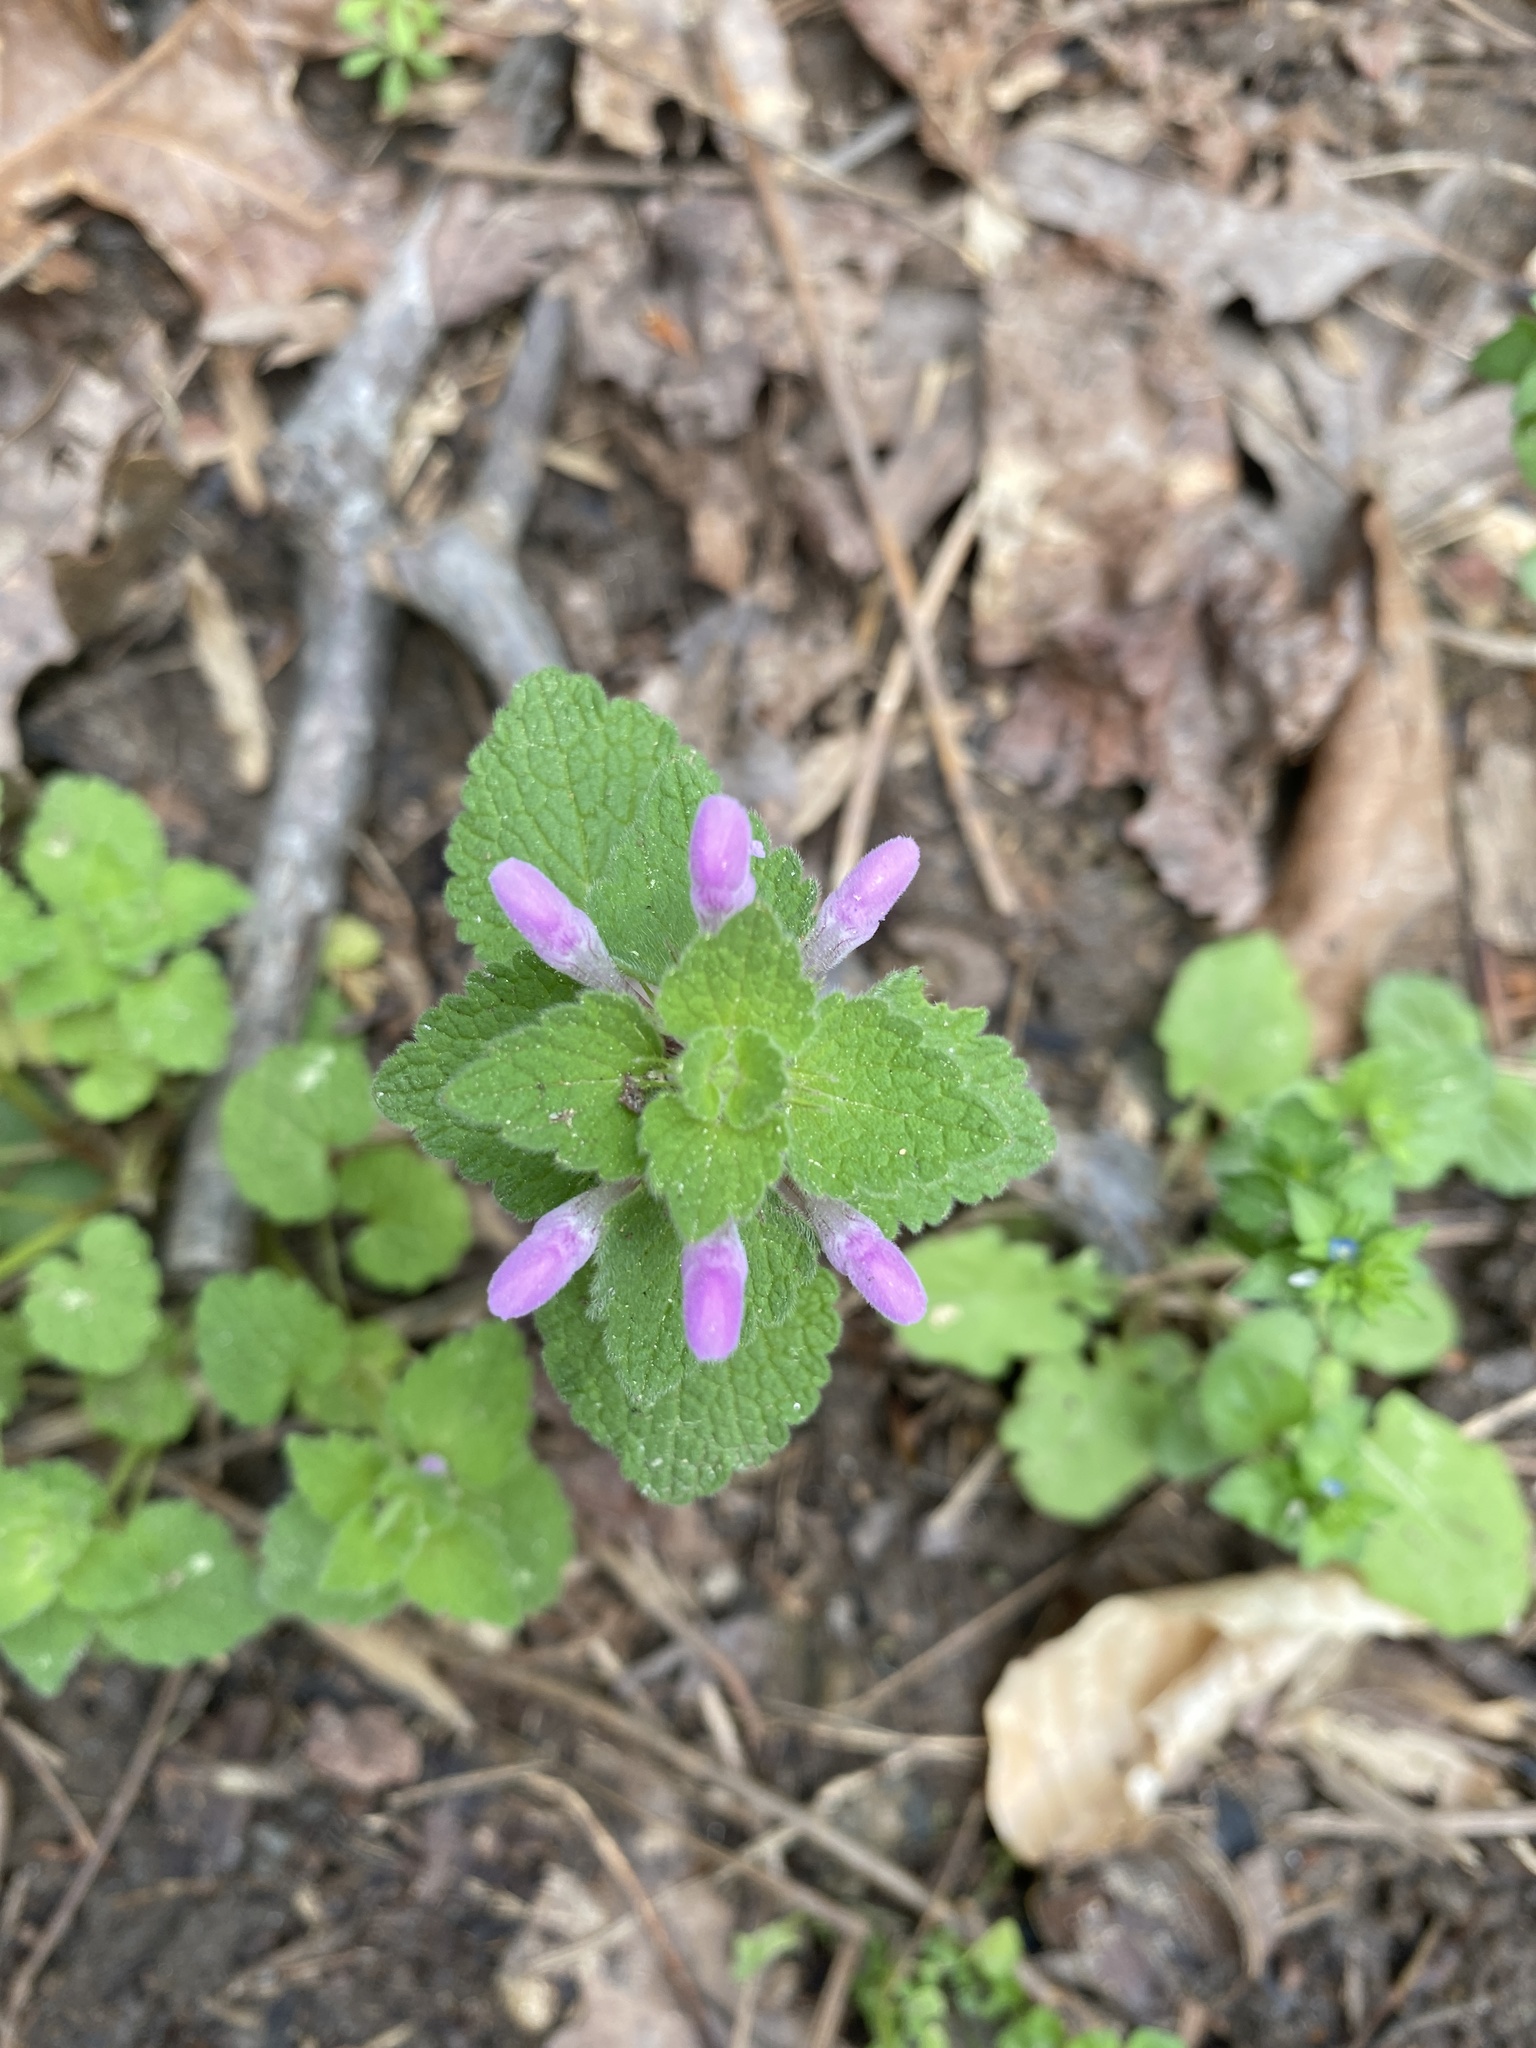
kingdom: Plantae
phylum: Tracheophyta
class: Magnoliopsida
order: Lamiales
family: Lamiaceae
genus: Lamium
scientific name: Lamium purpureum
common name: Red dead-nettle
